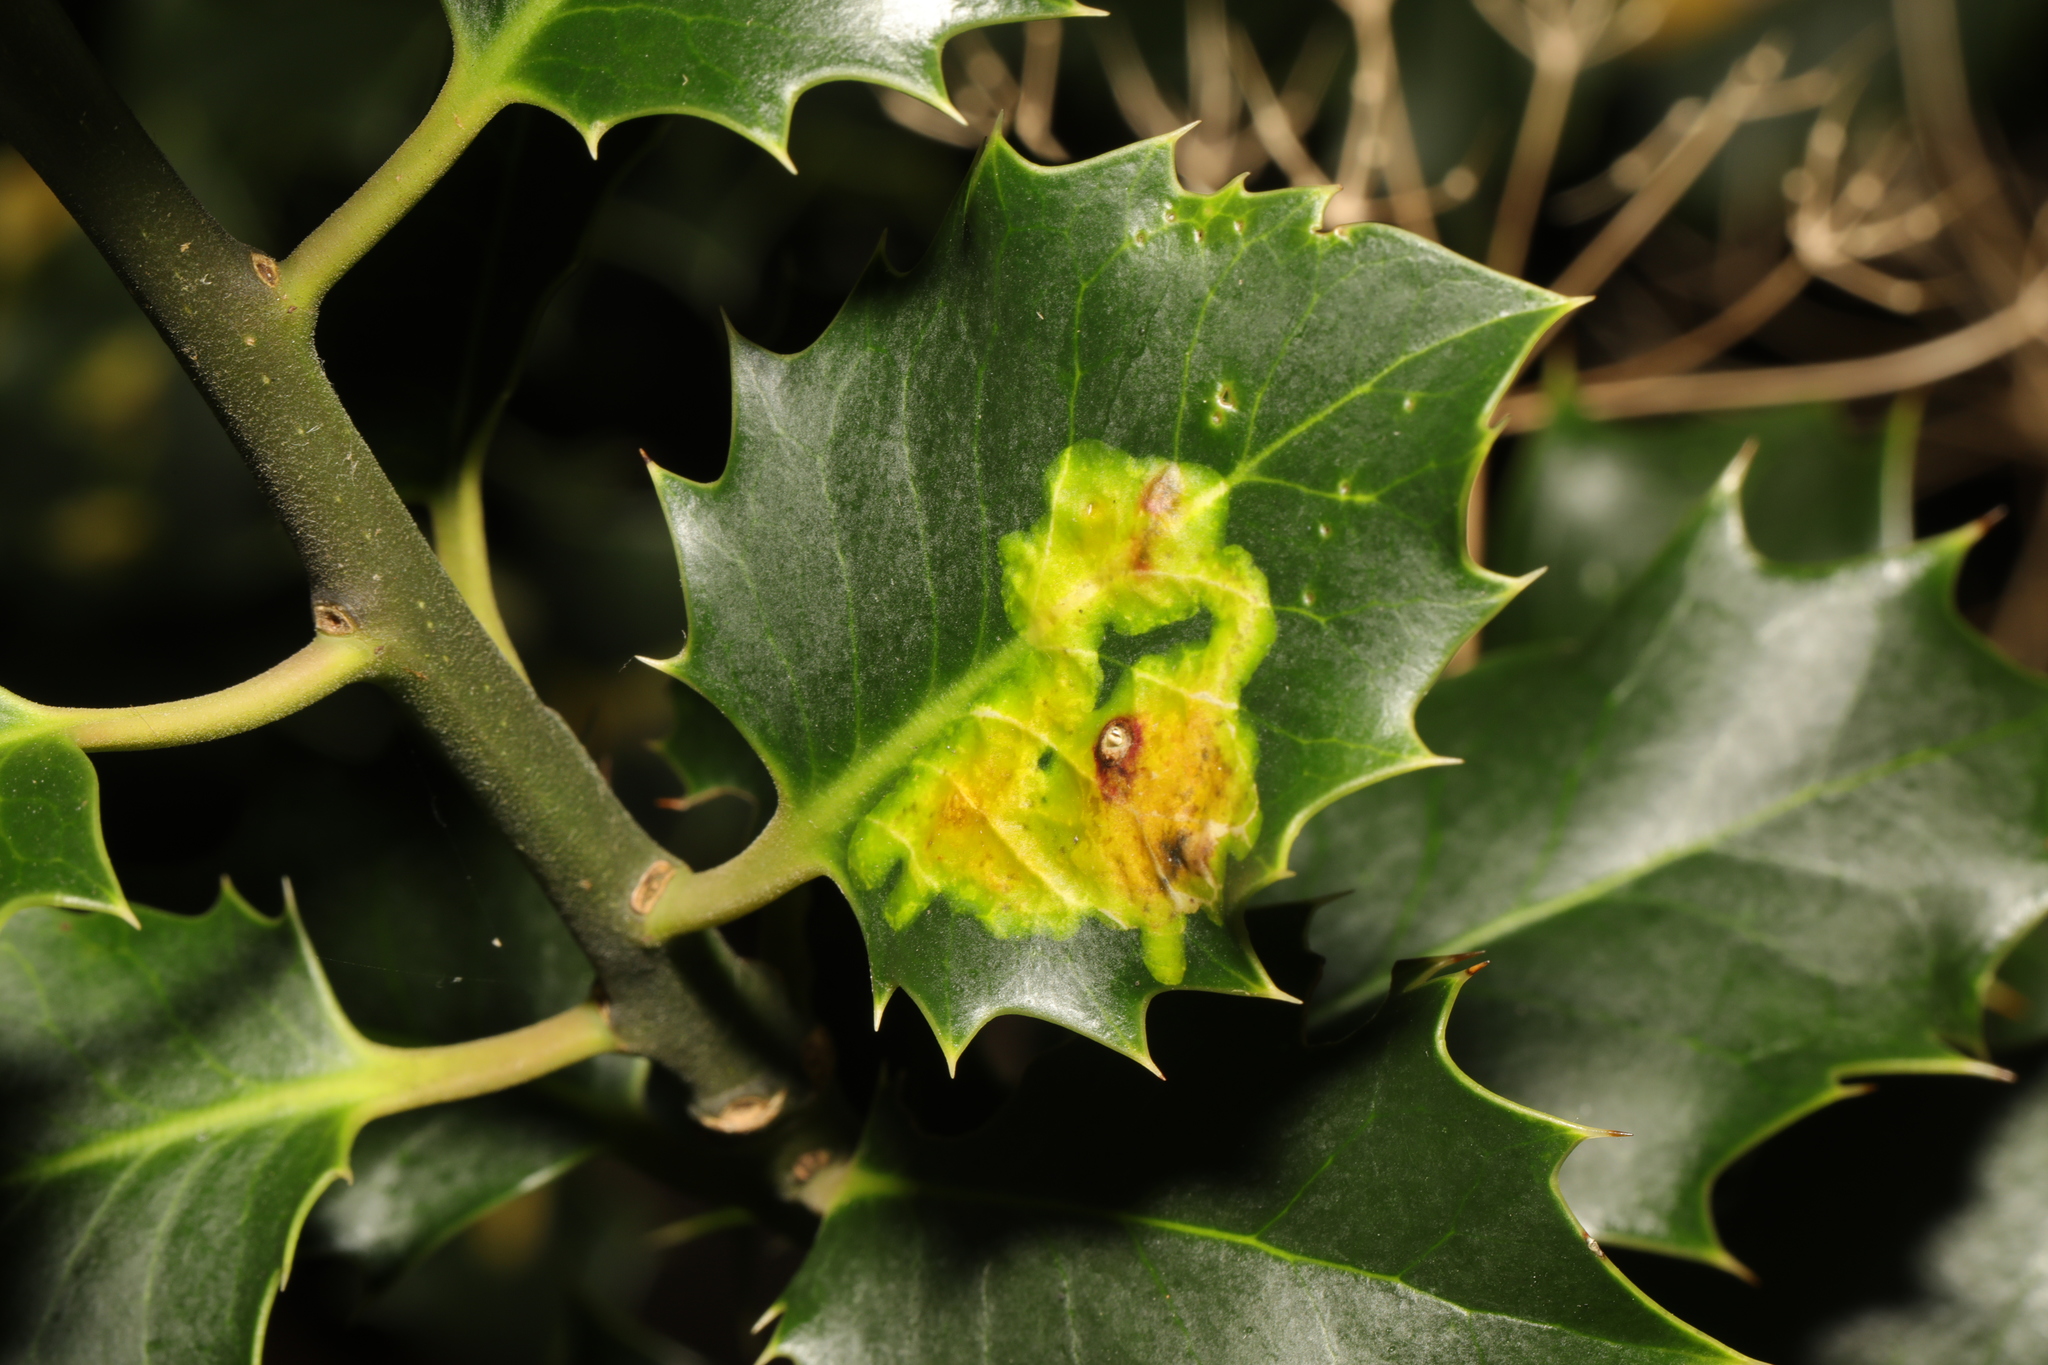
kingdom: Animalia
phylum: Arthropoda
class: Insecta
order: Diptera
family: Agromyzidae
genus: Phytomyza
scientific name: Phytomyza ilicis
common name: Holly leafminer
